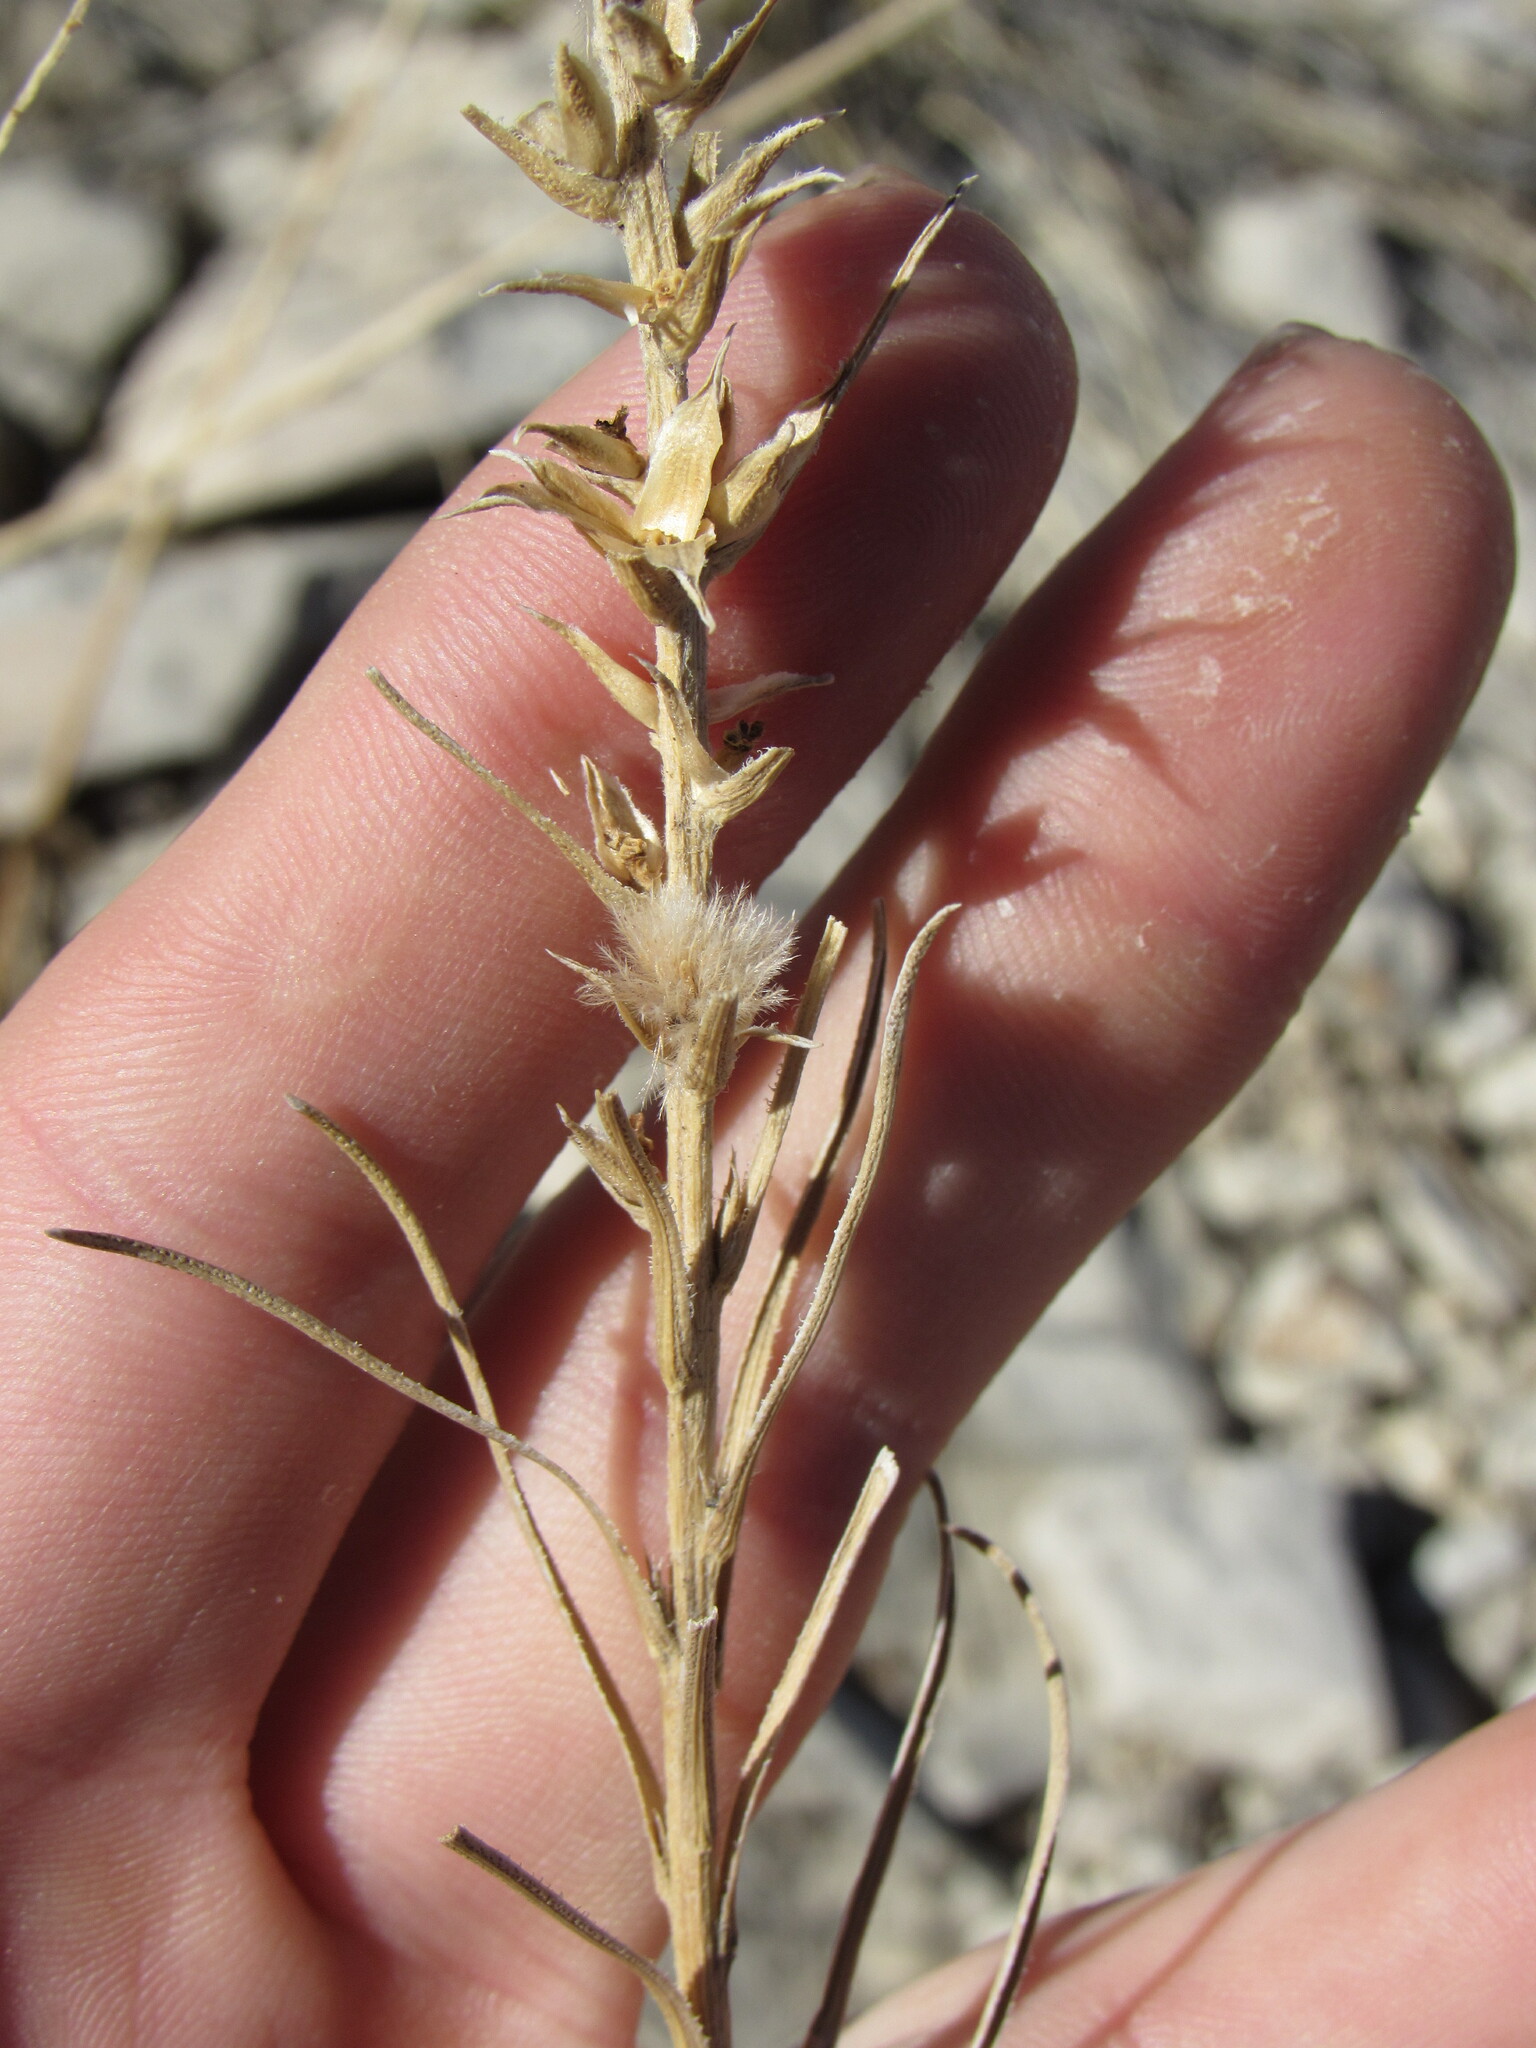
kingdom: Plantae
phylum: Tracheophyta
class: Magnoliopsida
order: Asterales
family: Asteraceae
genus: Liatris
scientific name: Liatris punctata
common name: Dotted gayfeather
